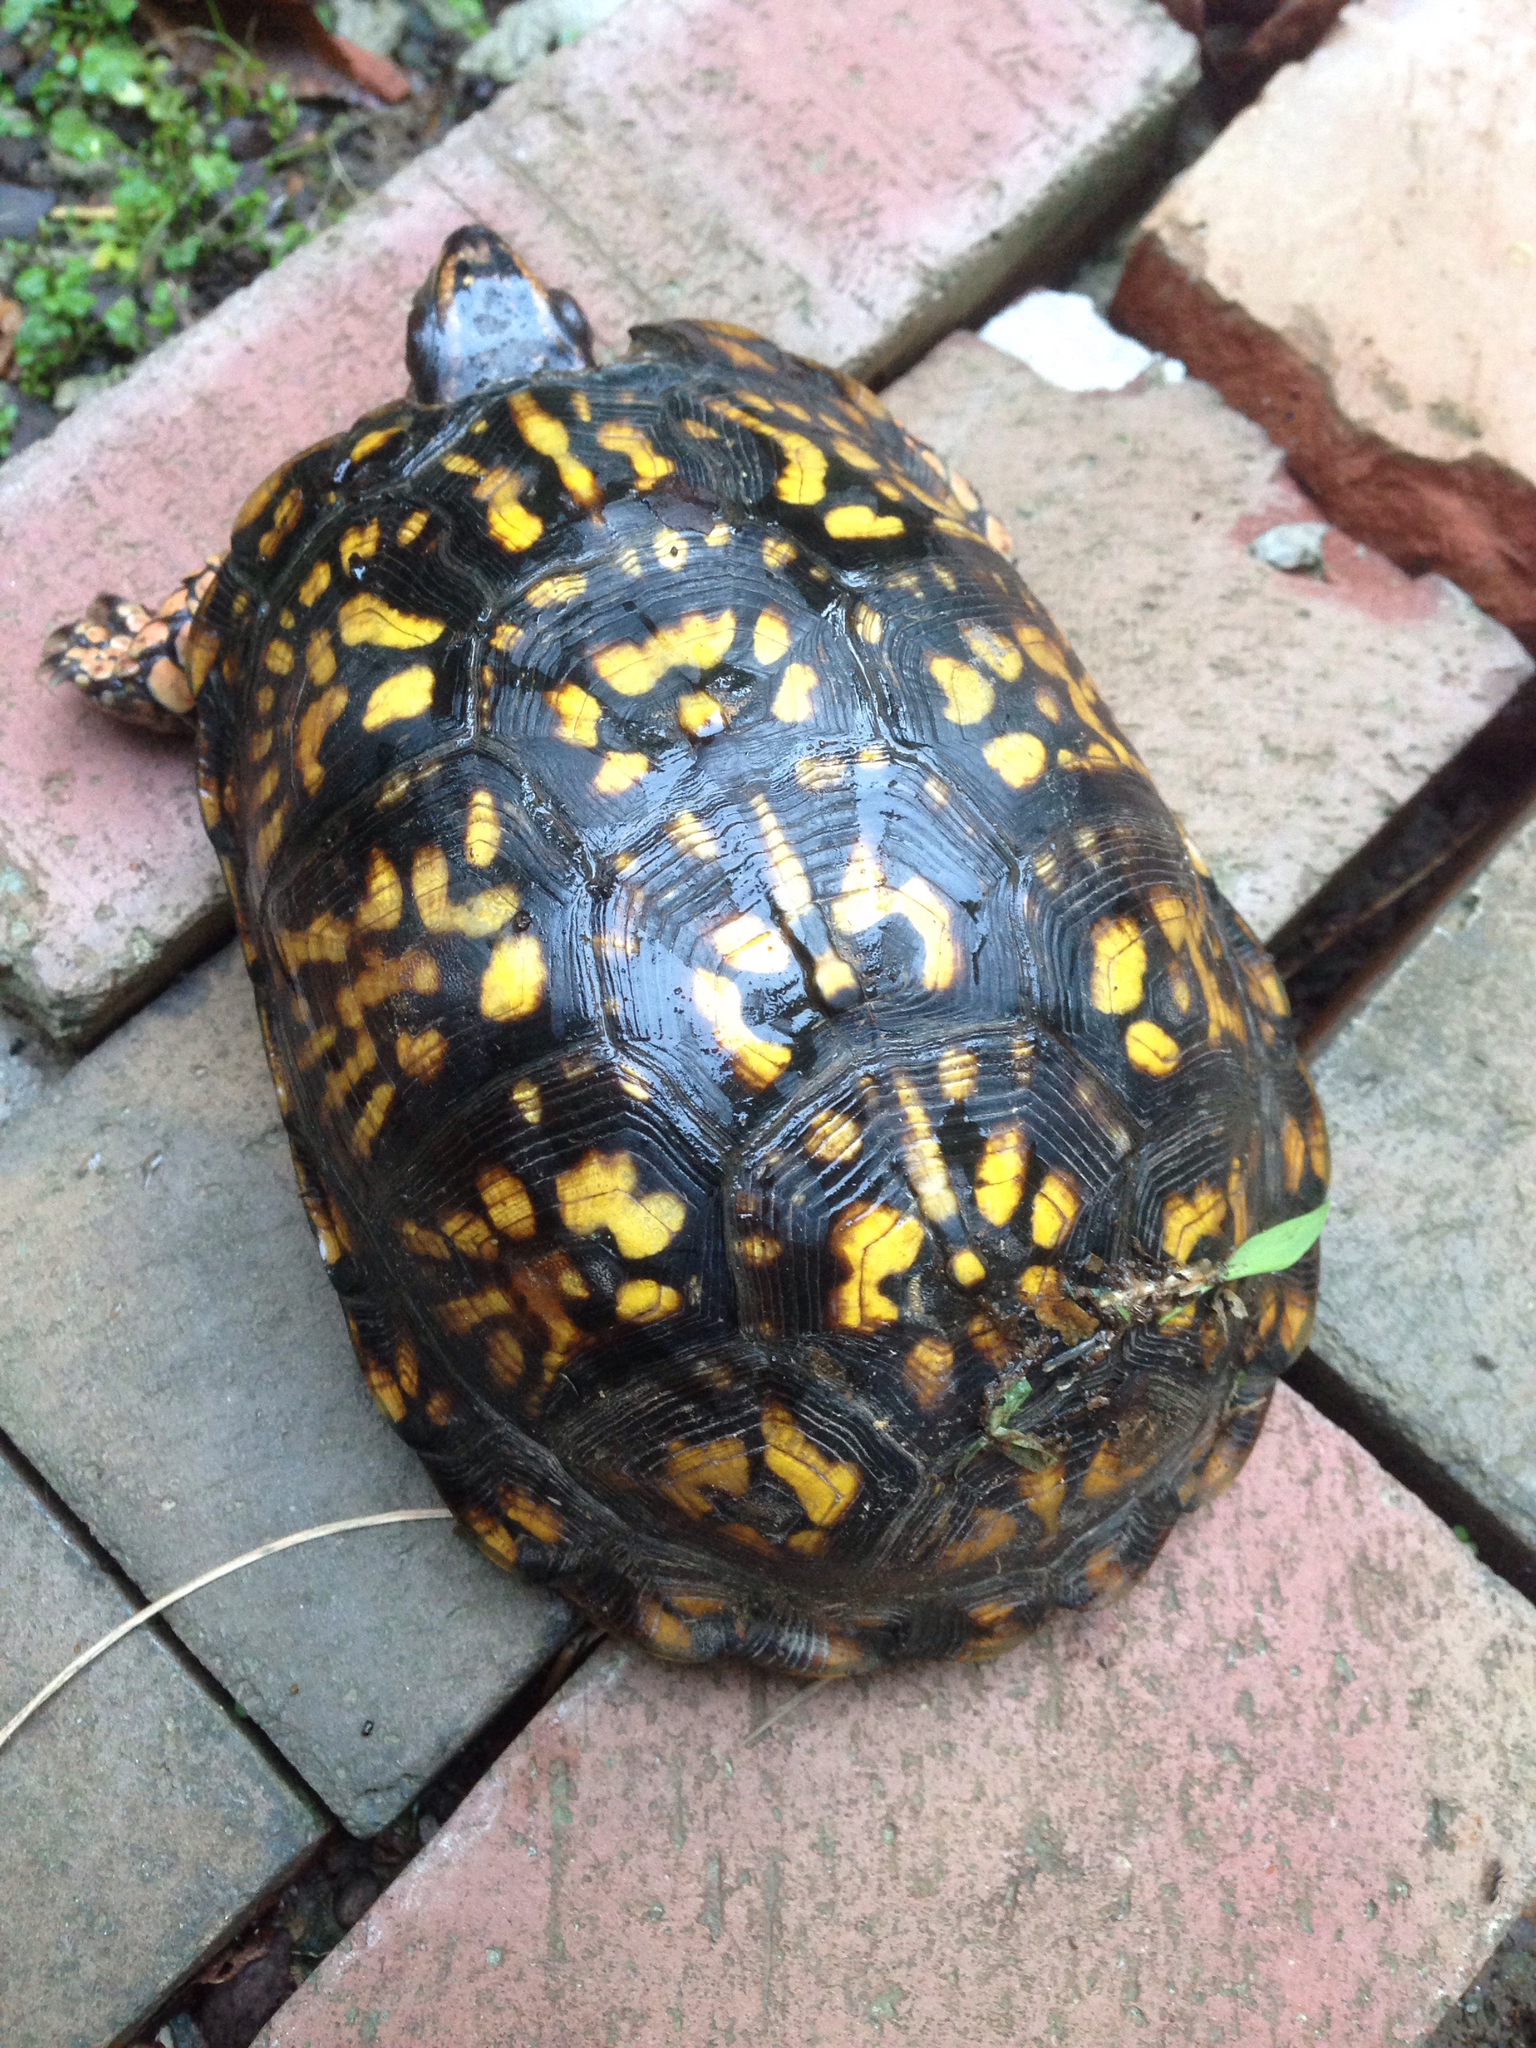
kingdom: Animalia
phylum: Chordata
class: Testudines
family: Emydidae
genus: Terrapene
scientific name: Terrapene carolina
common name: Common box turtle
